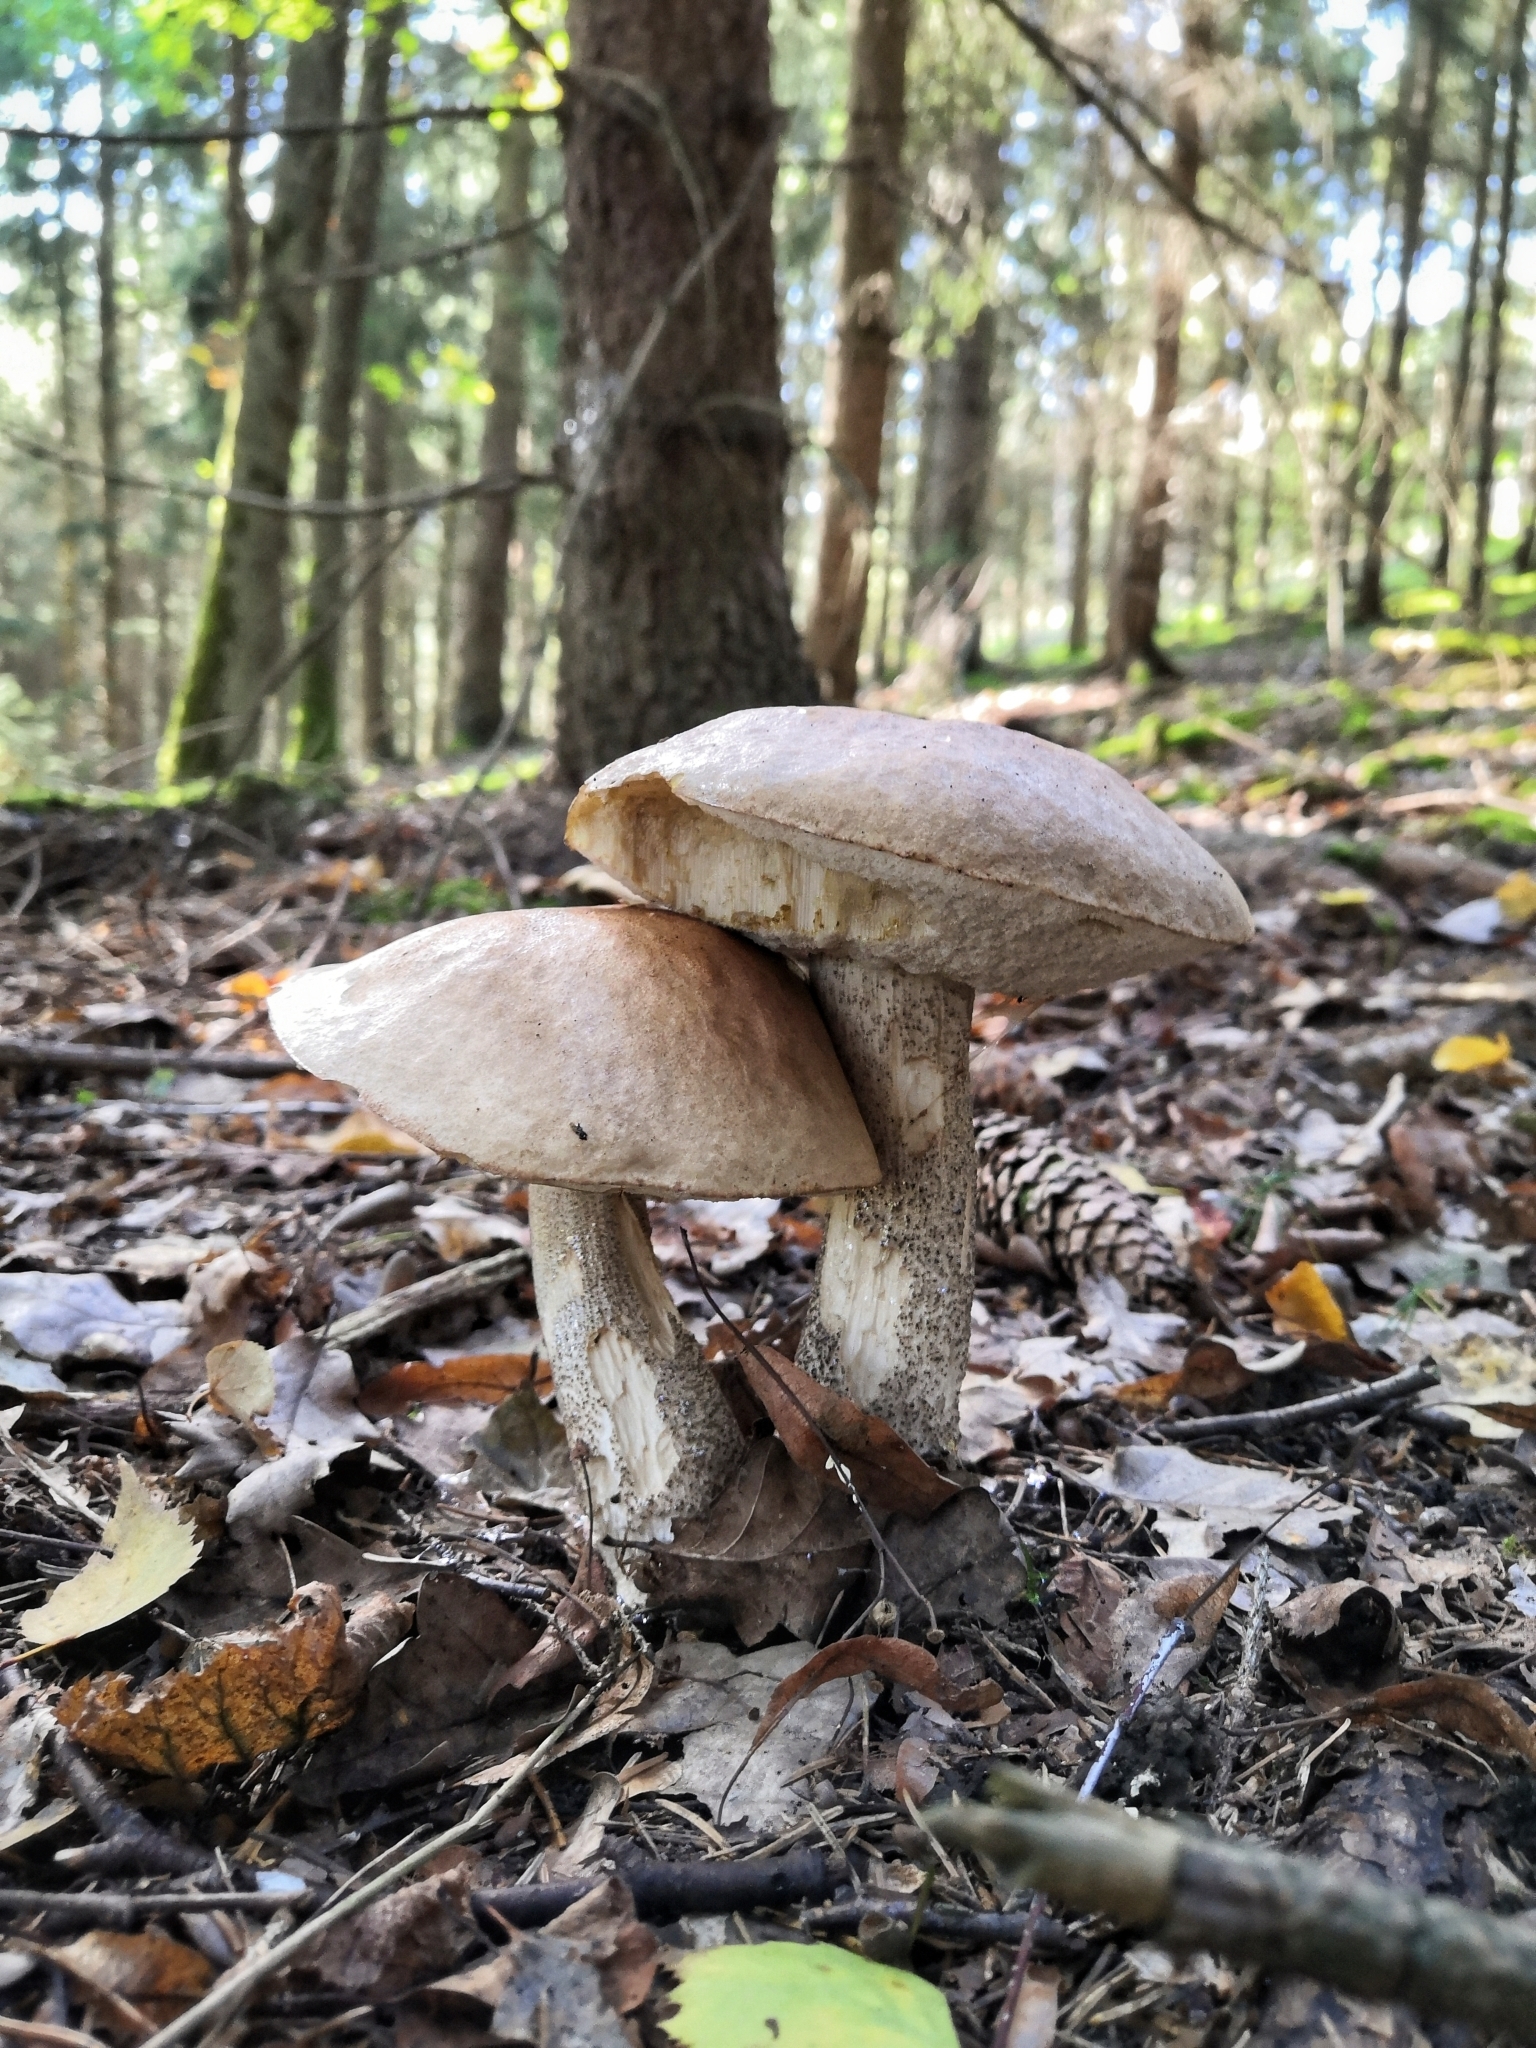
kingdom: Fungi
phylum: Basidiomycota
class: Agaricomycetes
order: Boletales
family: Boletaceae
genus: Leccinum
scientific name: Leccinum scabrum
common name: Blushing bolete
